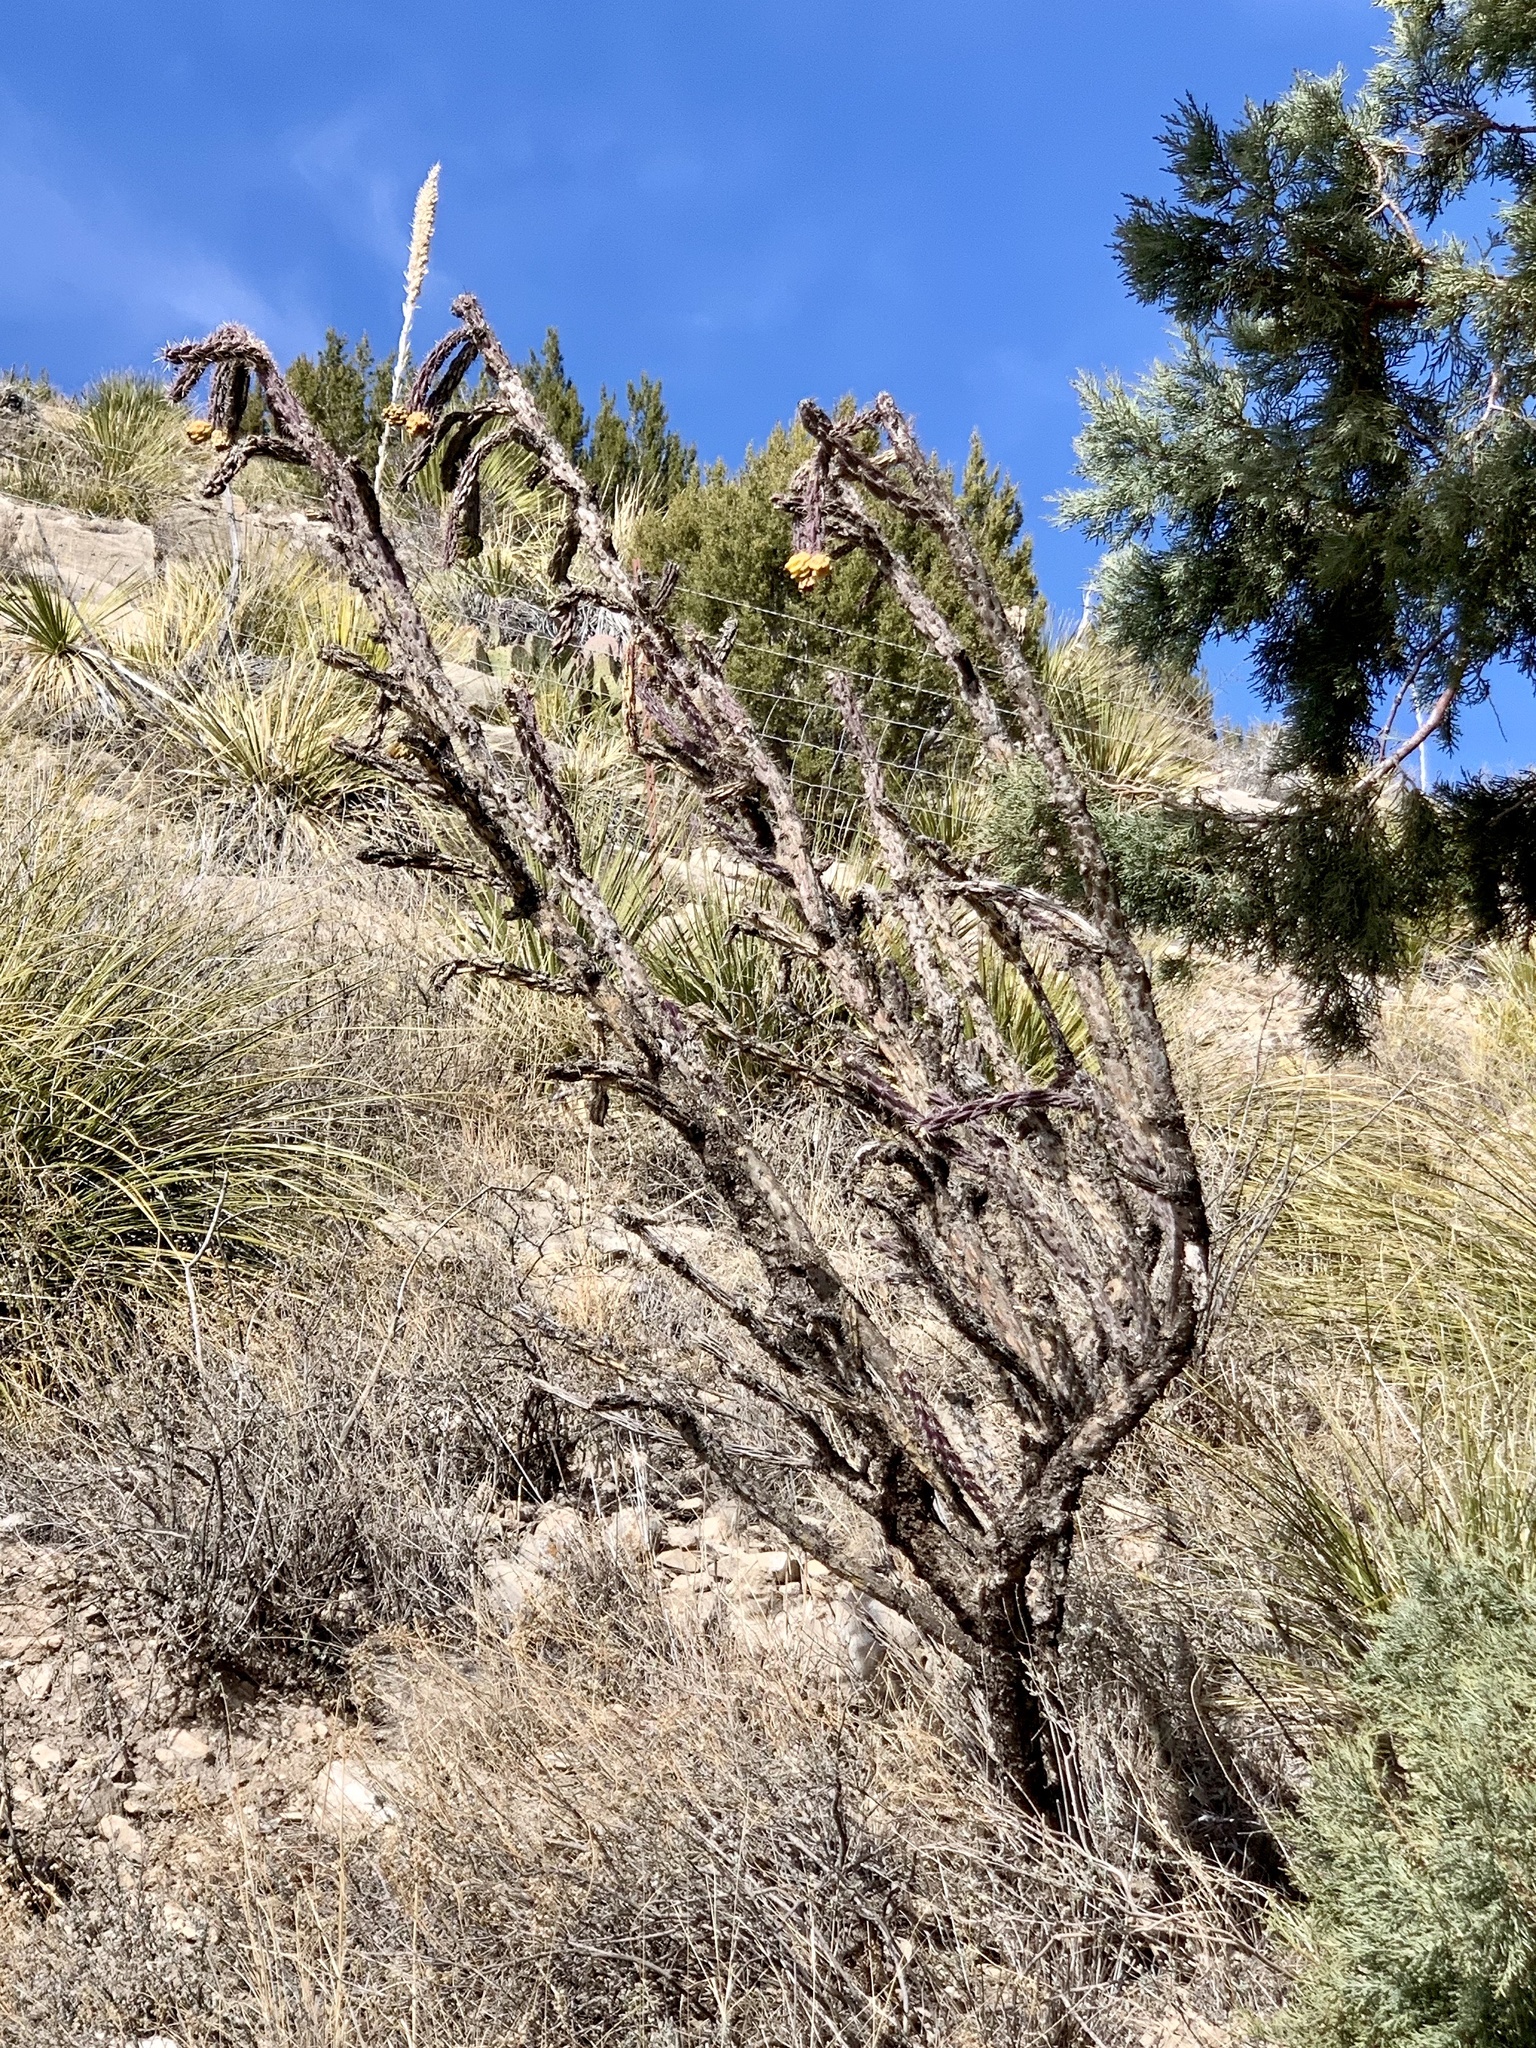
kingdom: Plantae
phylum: Tracheophyta
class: Magnoliopsida
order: Caryophyllales
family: Cactaceae
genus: Cylindropuntia
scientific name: Cylindropuntia imbricata
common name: Candelabrum cactus
